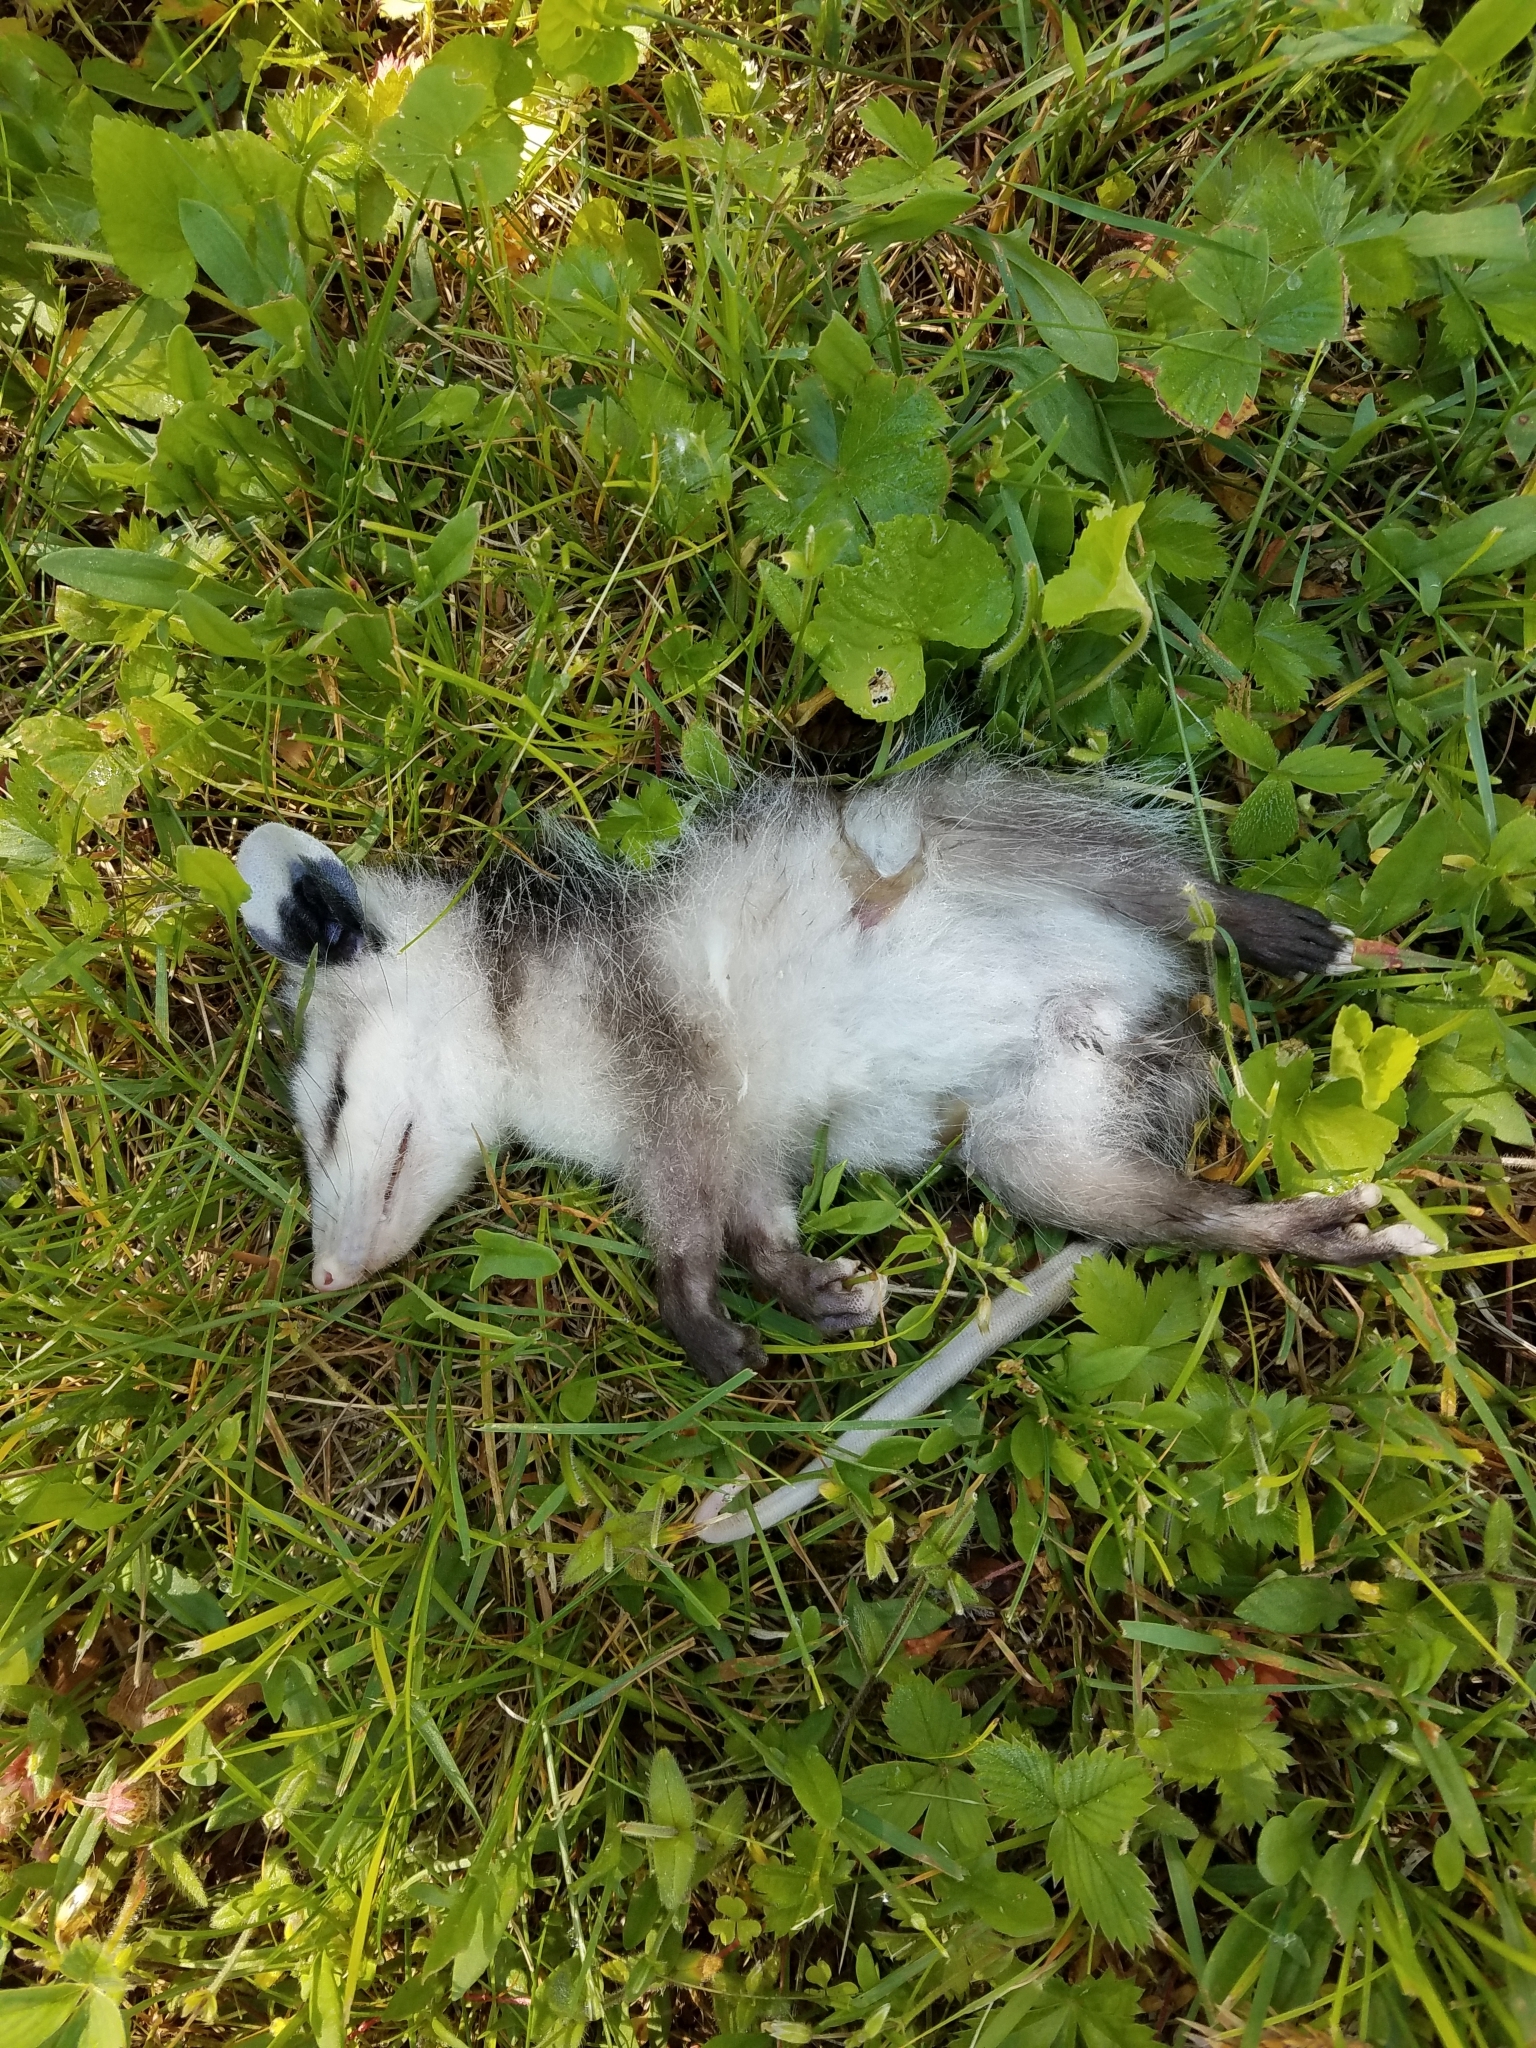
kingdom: Animalia
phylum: Chordata
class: Mammalia
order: Didelphimorphia
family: Didelphidae
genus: Didelphis
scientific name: Didelphis virginiana
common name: Virginia opossum
